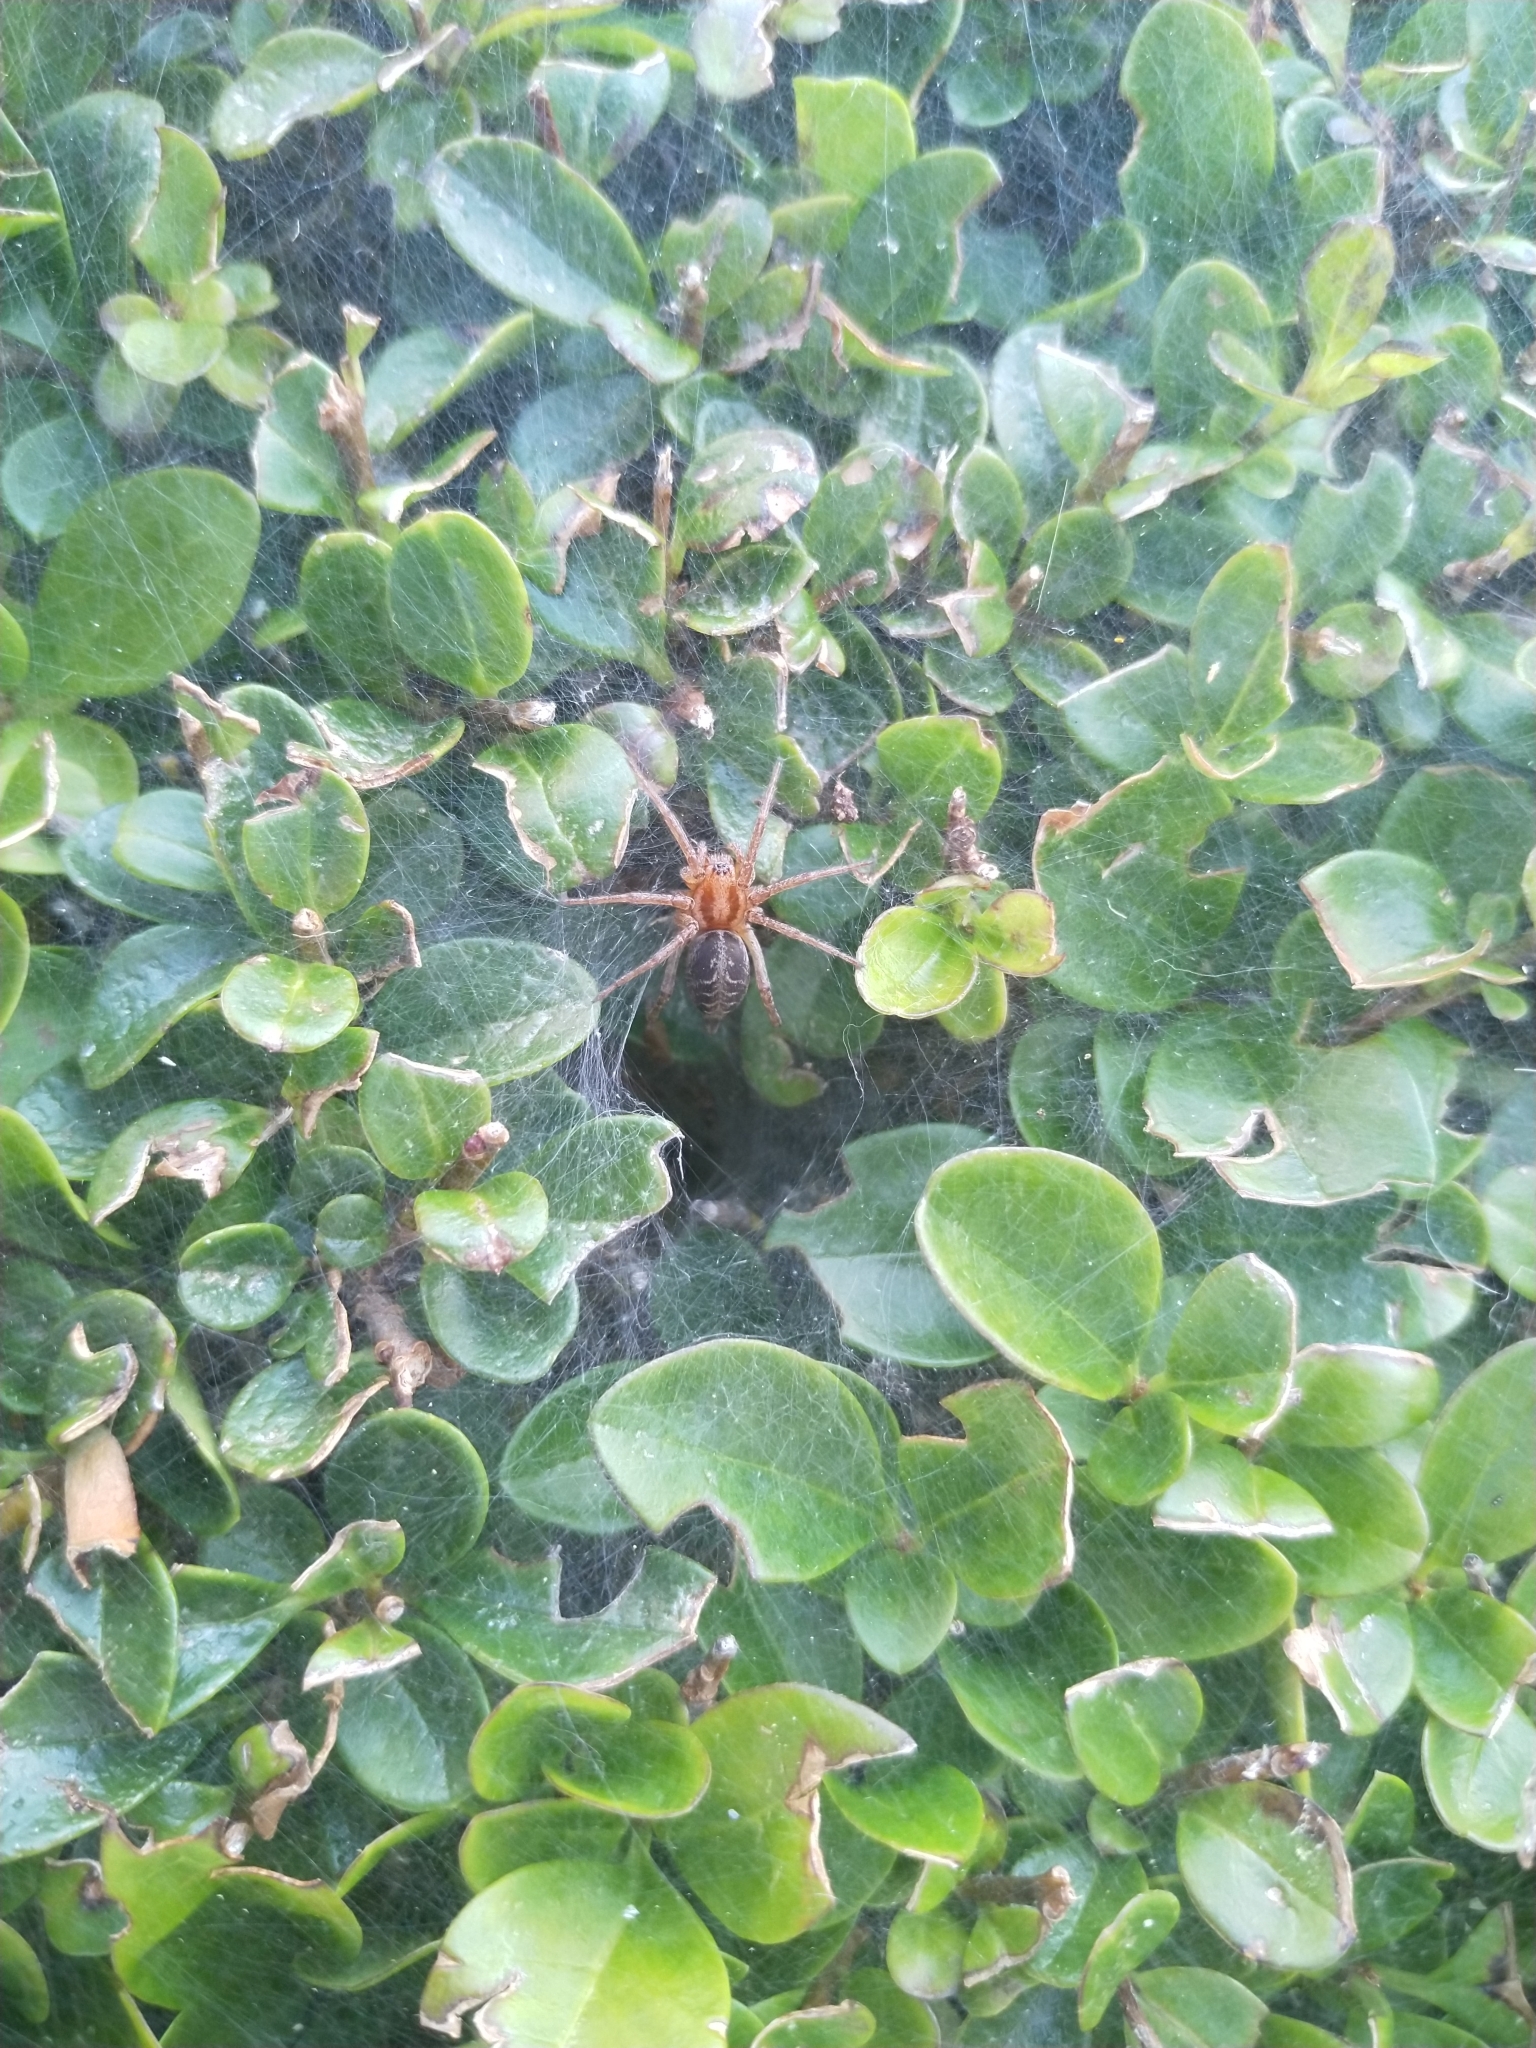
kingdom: Animalia
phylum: Arthropoda
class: Arachnida
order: Araneae
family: Agelenidae
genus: Agelena
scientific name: Agelena labyrinthica
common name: Labyrinth spider
